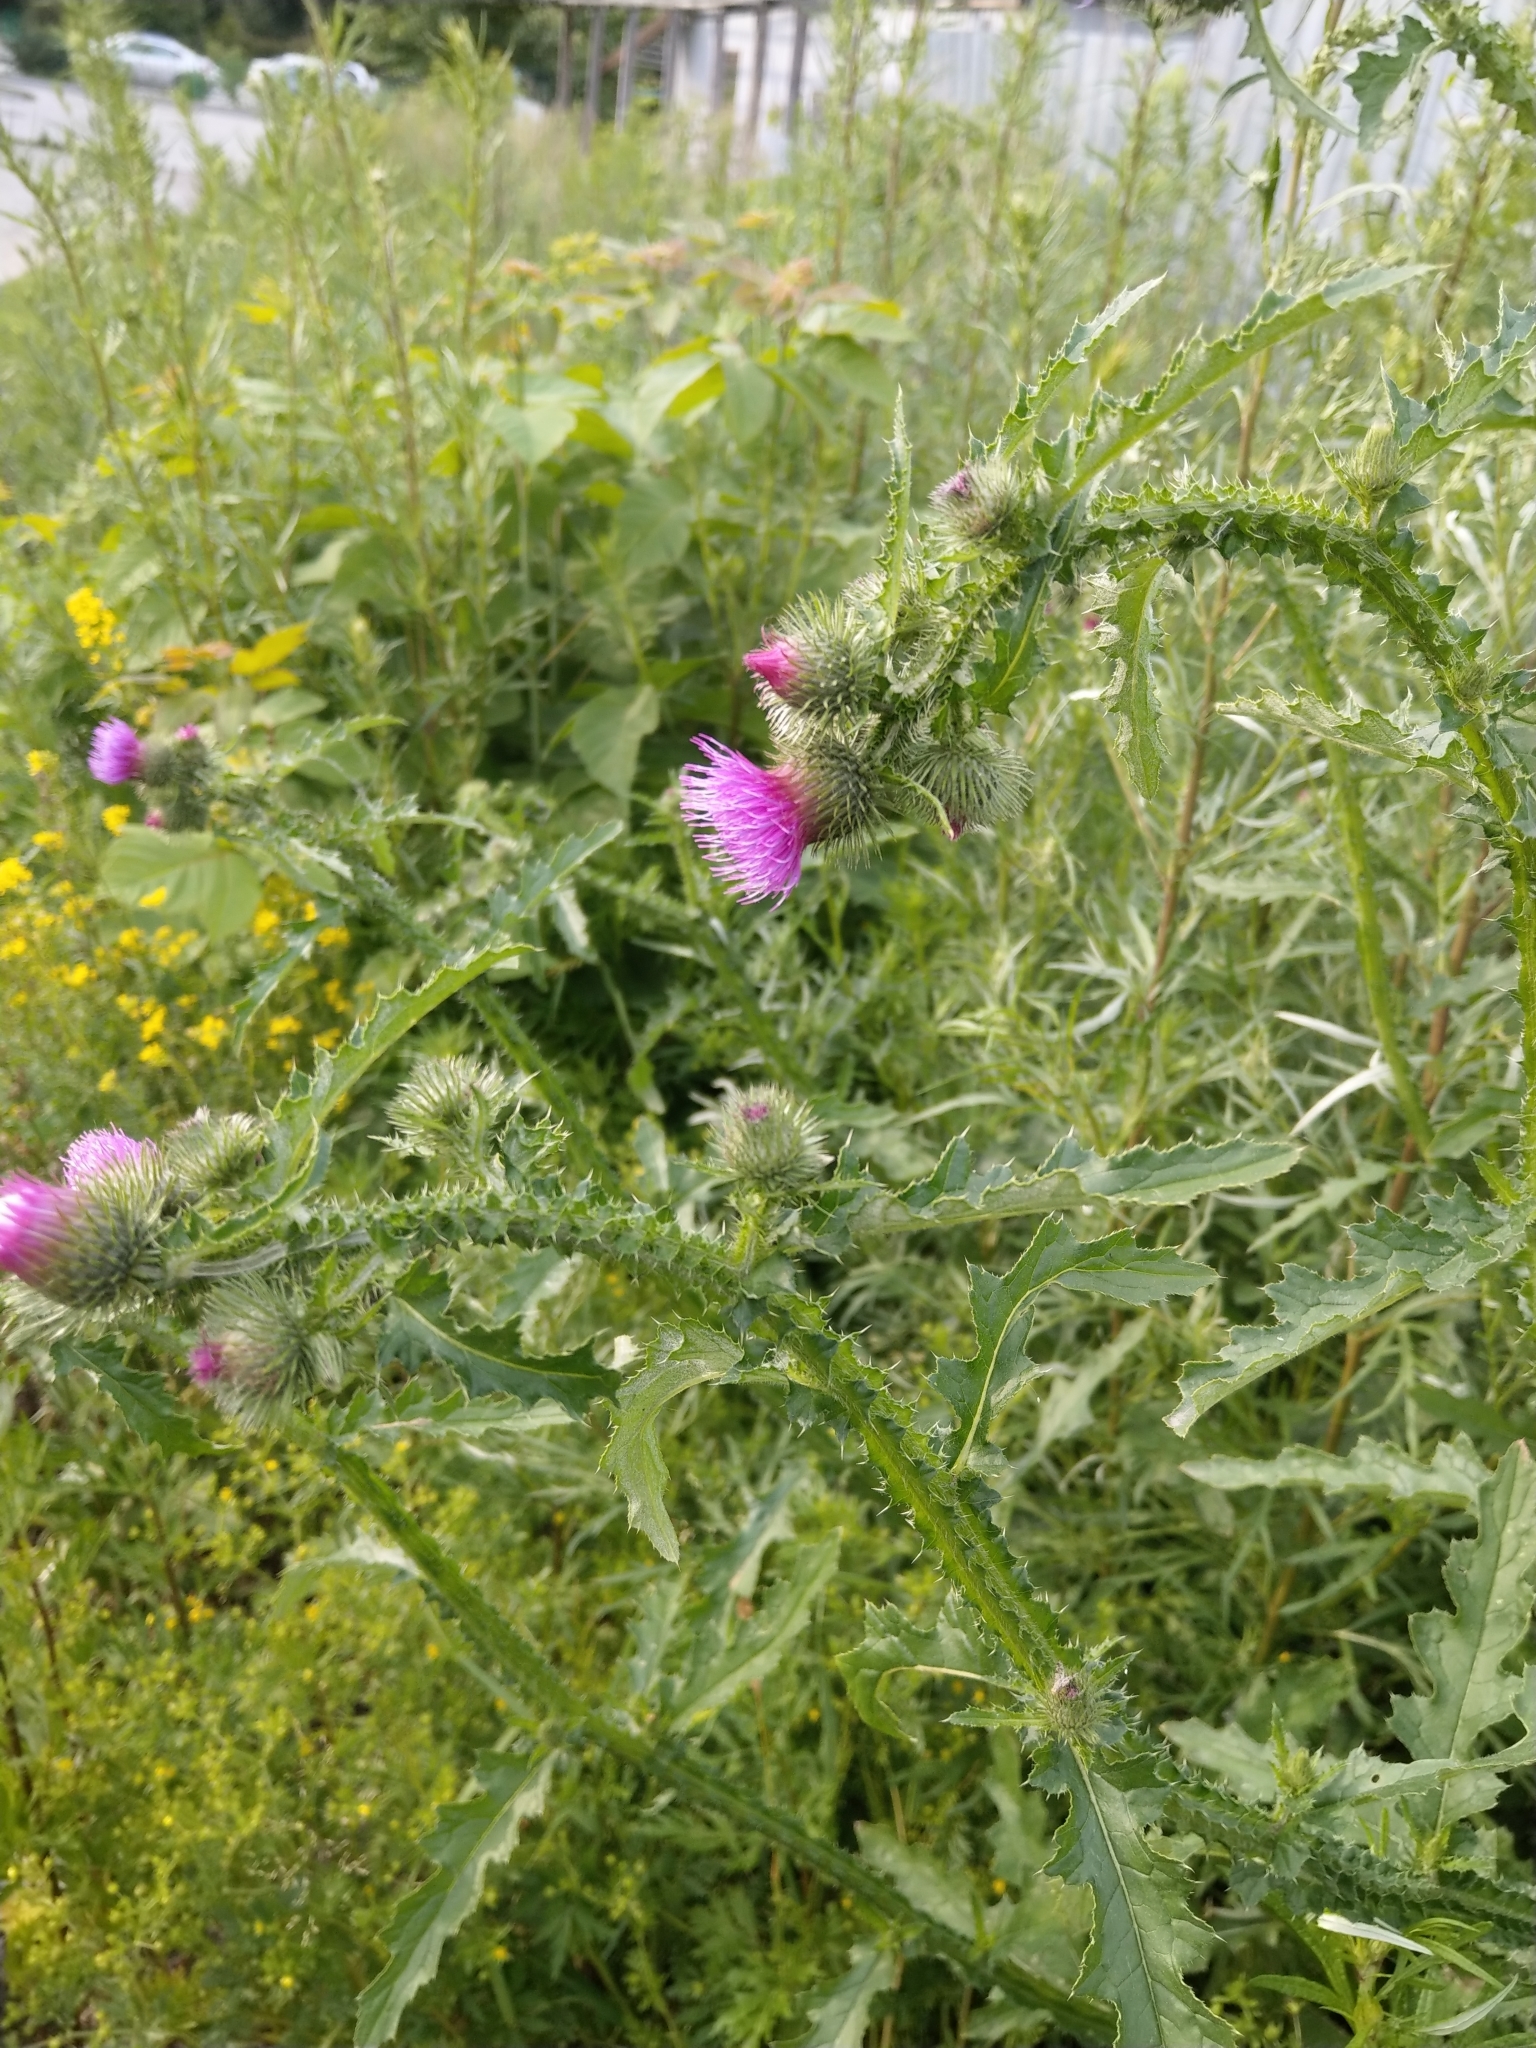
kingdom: Plantae
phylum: Tracheophyta
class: Magnoliopsida
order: Asterales
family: Asteraceae
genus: Carduus
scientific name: Carduus crispus
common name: Welted thistle
